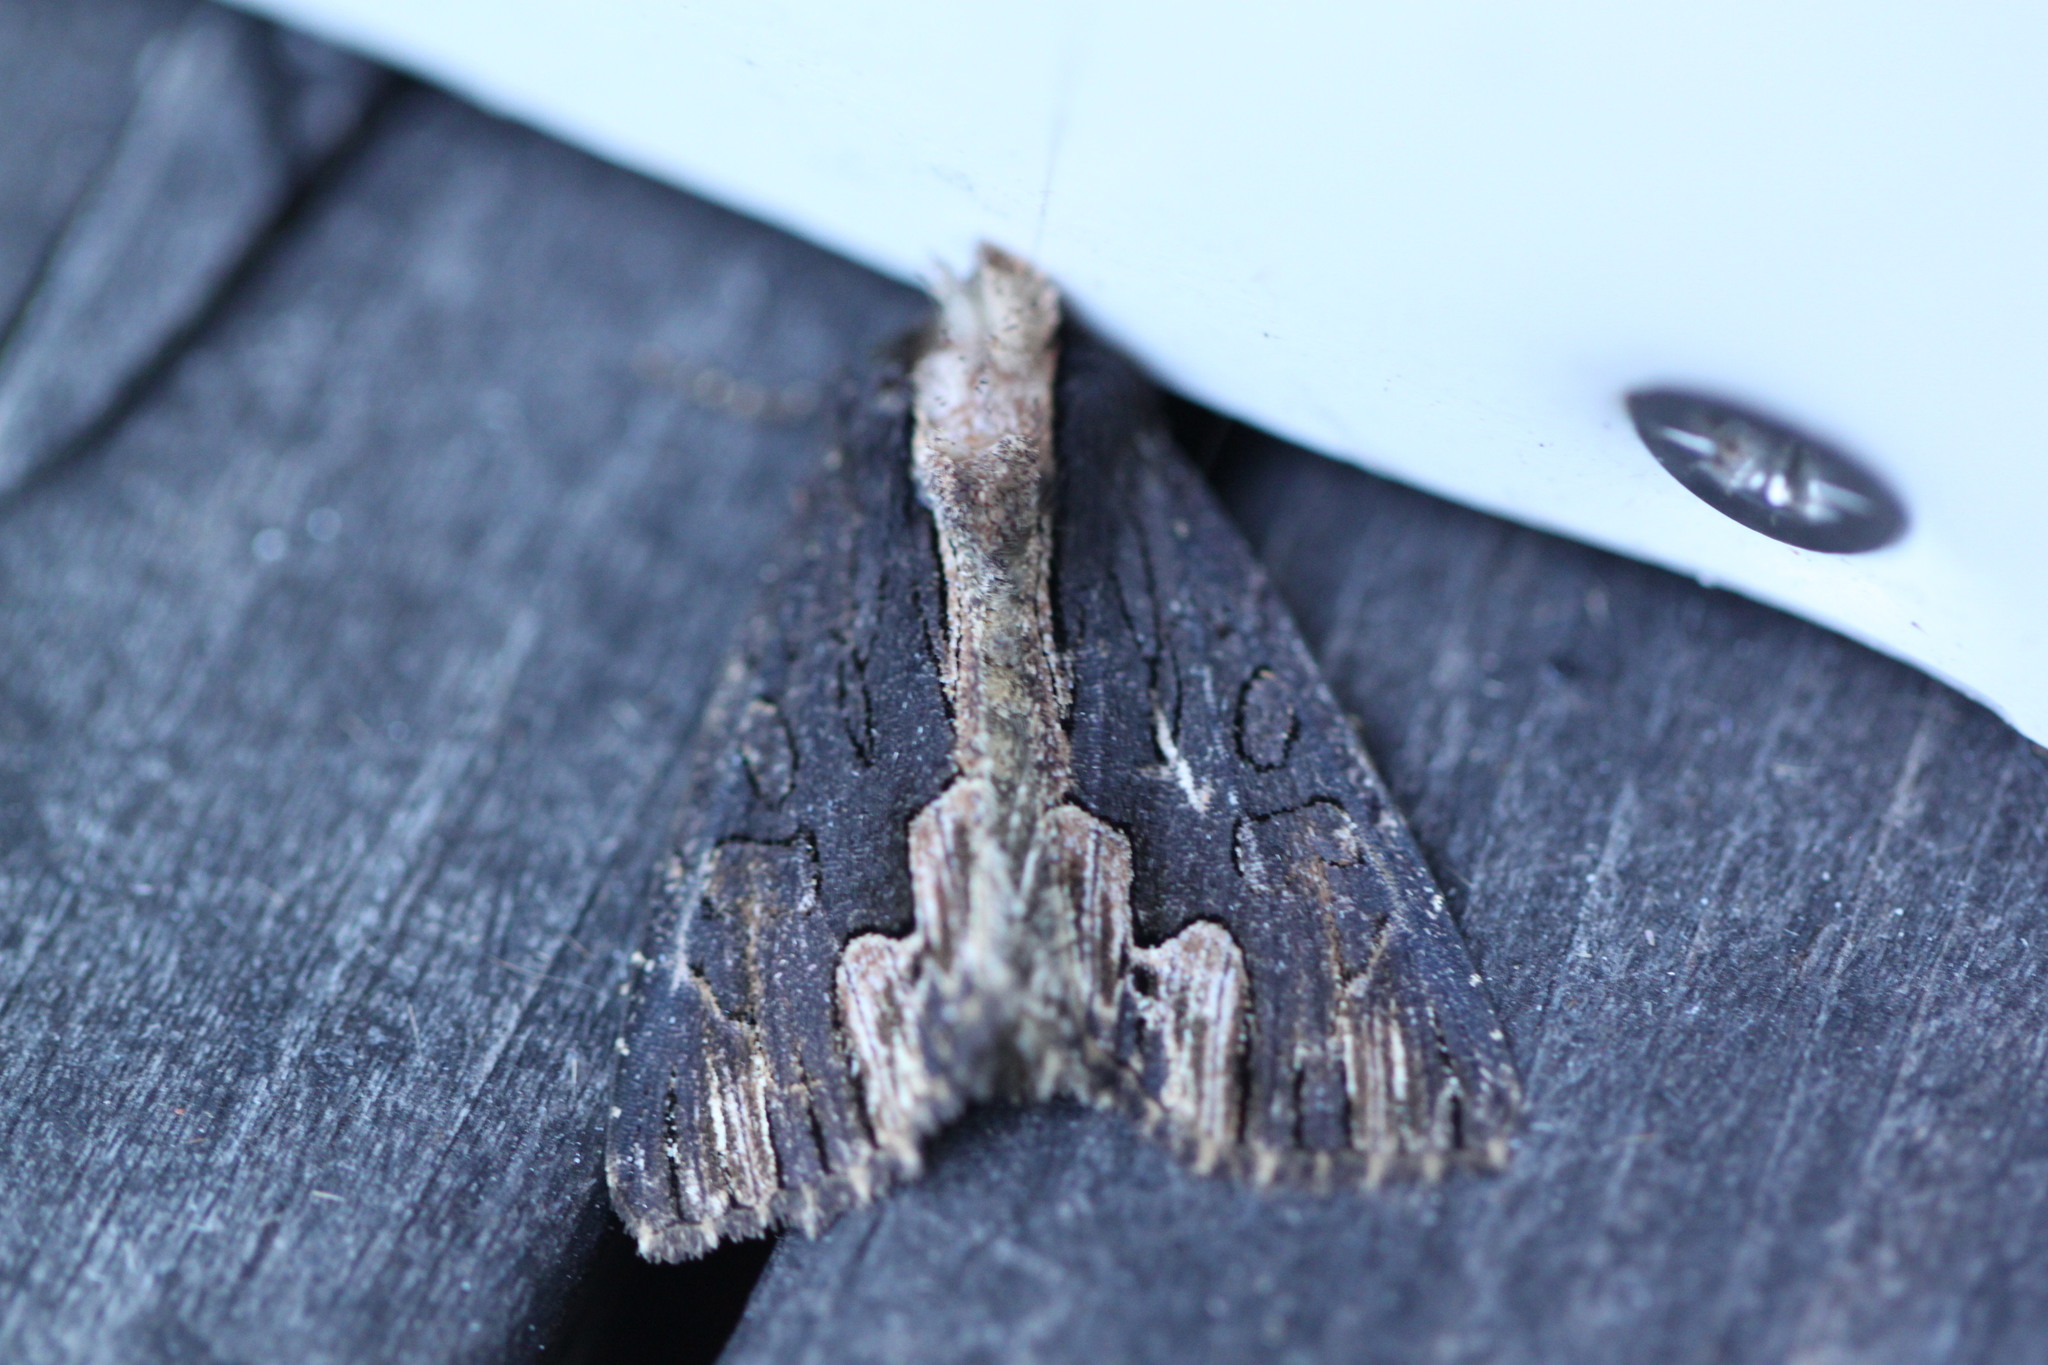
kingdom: Animalia
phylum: Arthropoda
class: Insecta
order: Lepidoptera
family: Noctuidae
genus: Dypterygia
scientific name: Dypterygia scabriuscula
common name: Bird's wing
